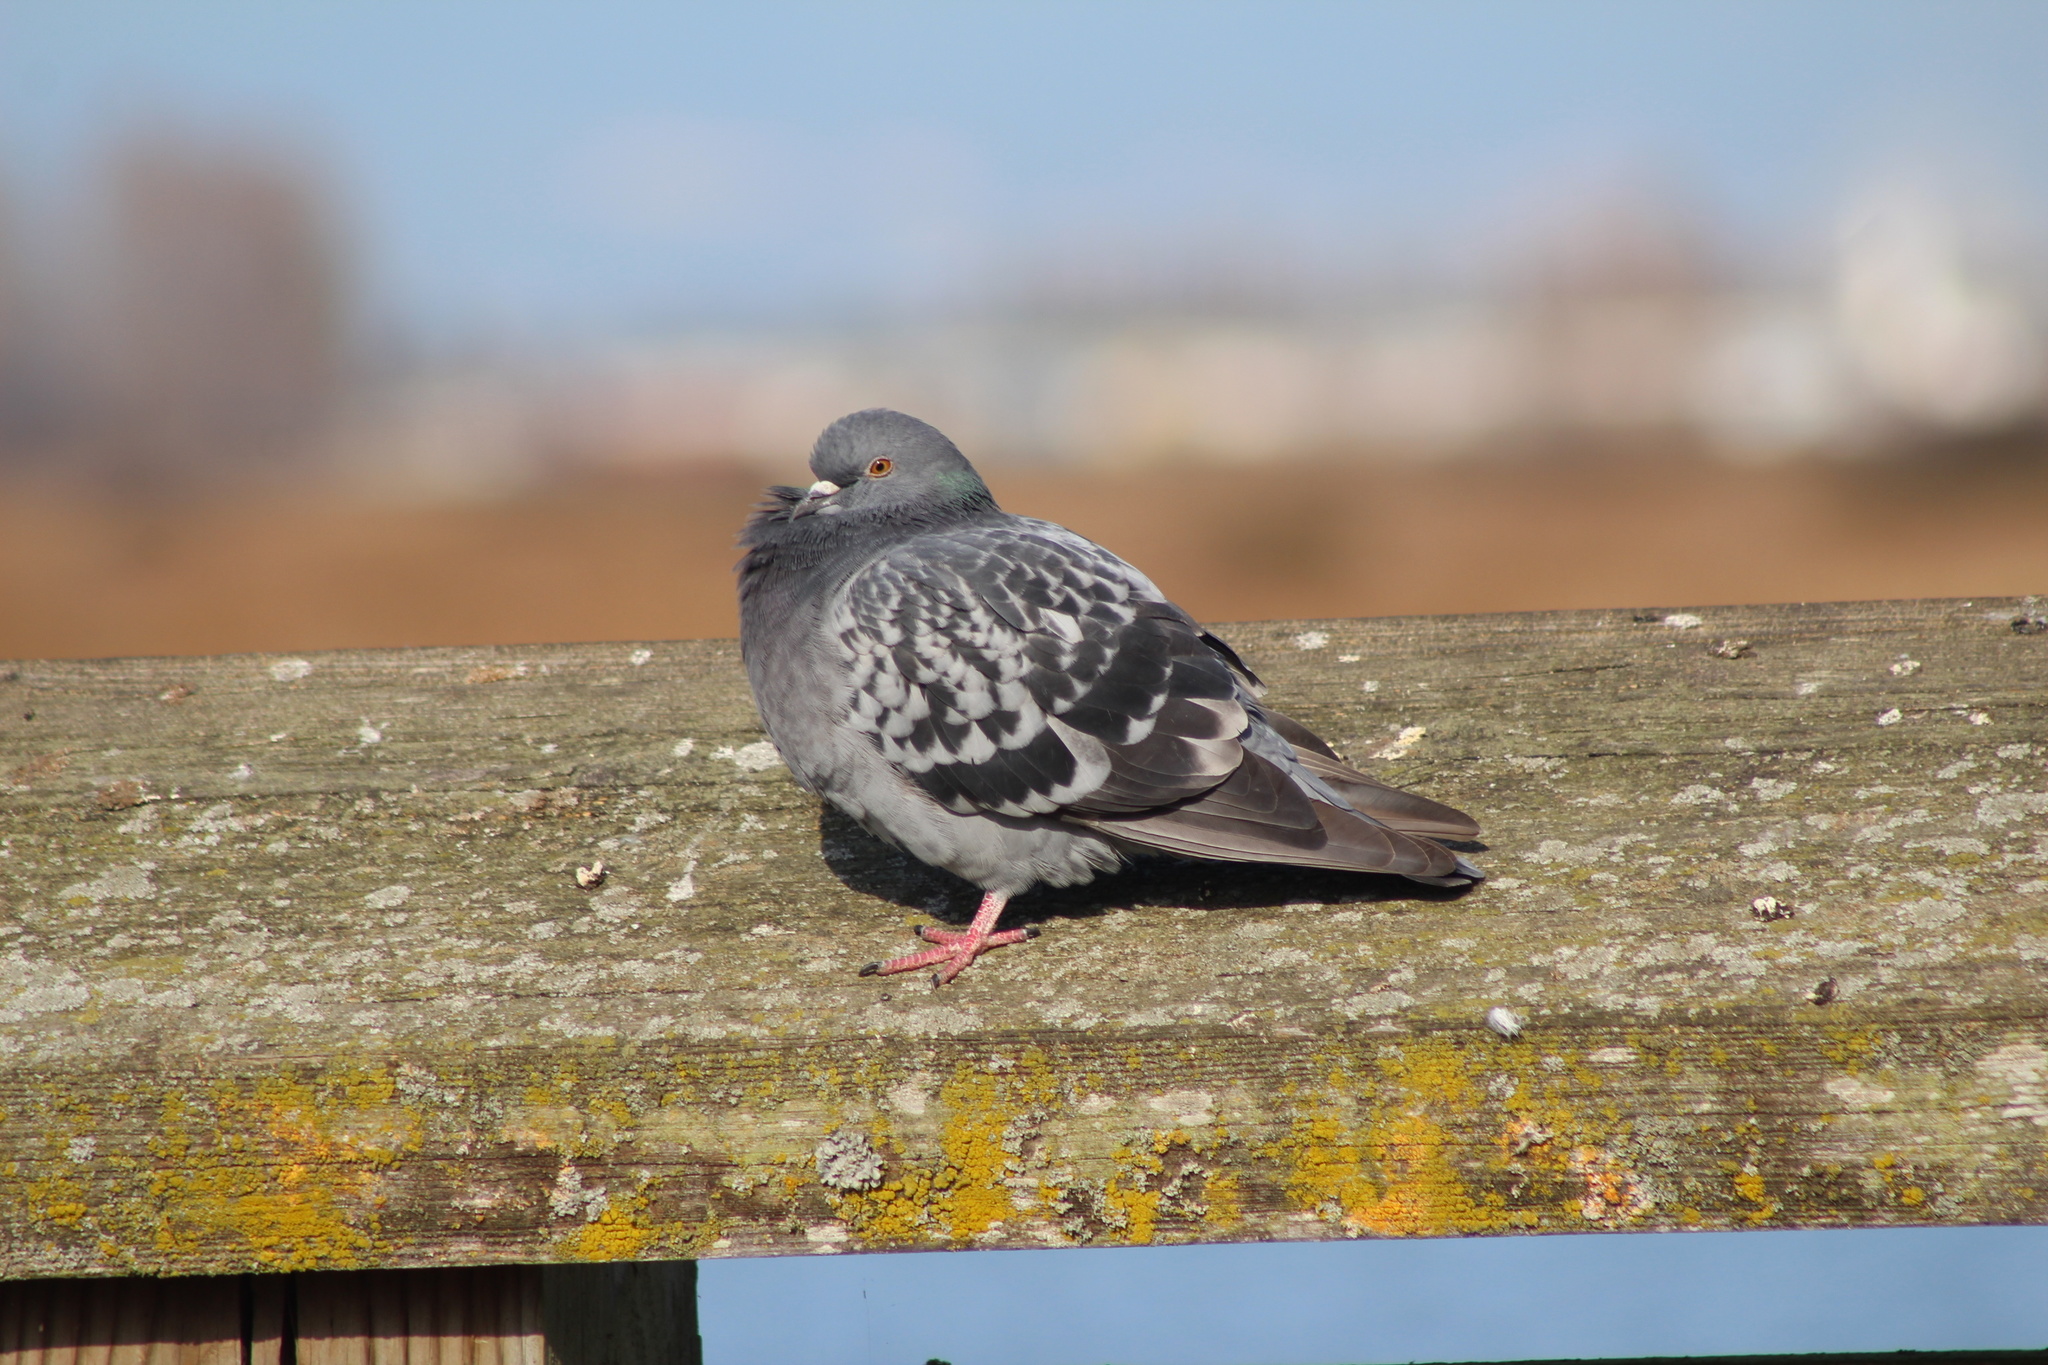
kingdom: Animalia
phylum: Chordata
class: Aves
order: Columbiformes
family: Columbidae
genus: Columba
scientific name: Columba livia
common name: Rock pigeon
